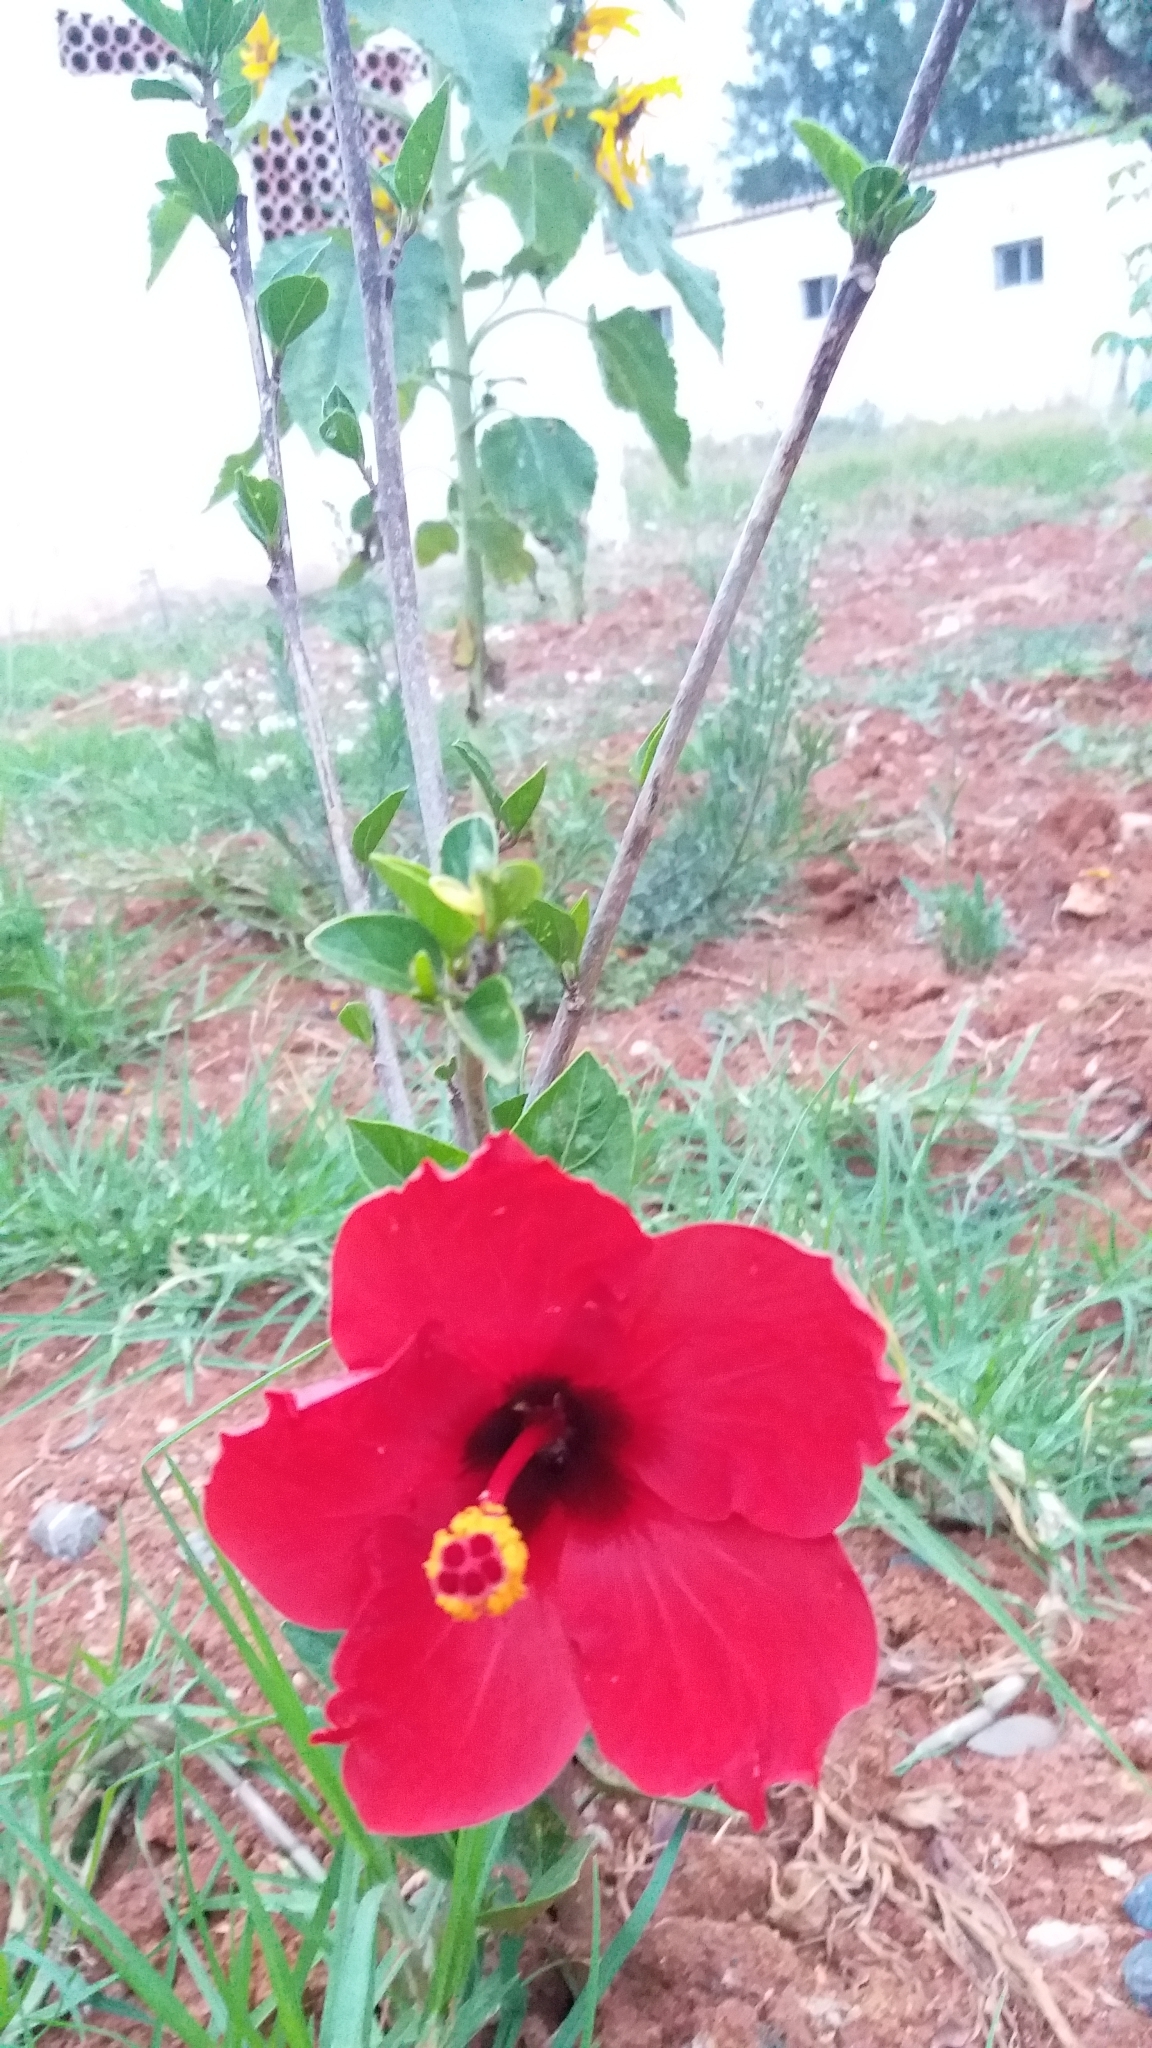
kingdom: Plantae
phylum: Tracheophyta
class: Magnoliopsida
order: Malvales
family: Malvaceae
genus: Hibiscus
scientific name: Hibiscus rosa-sinensis
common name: Hibiscus
